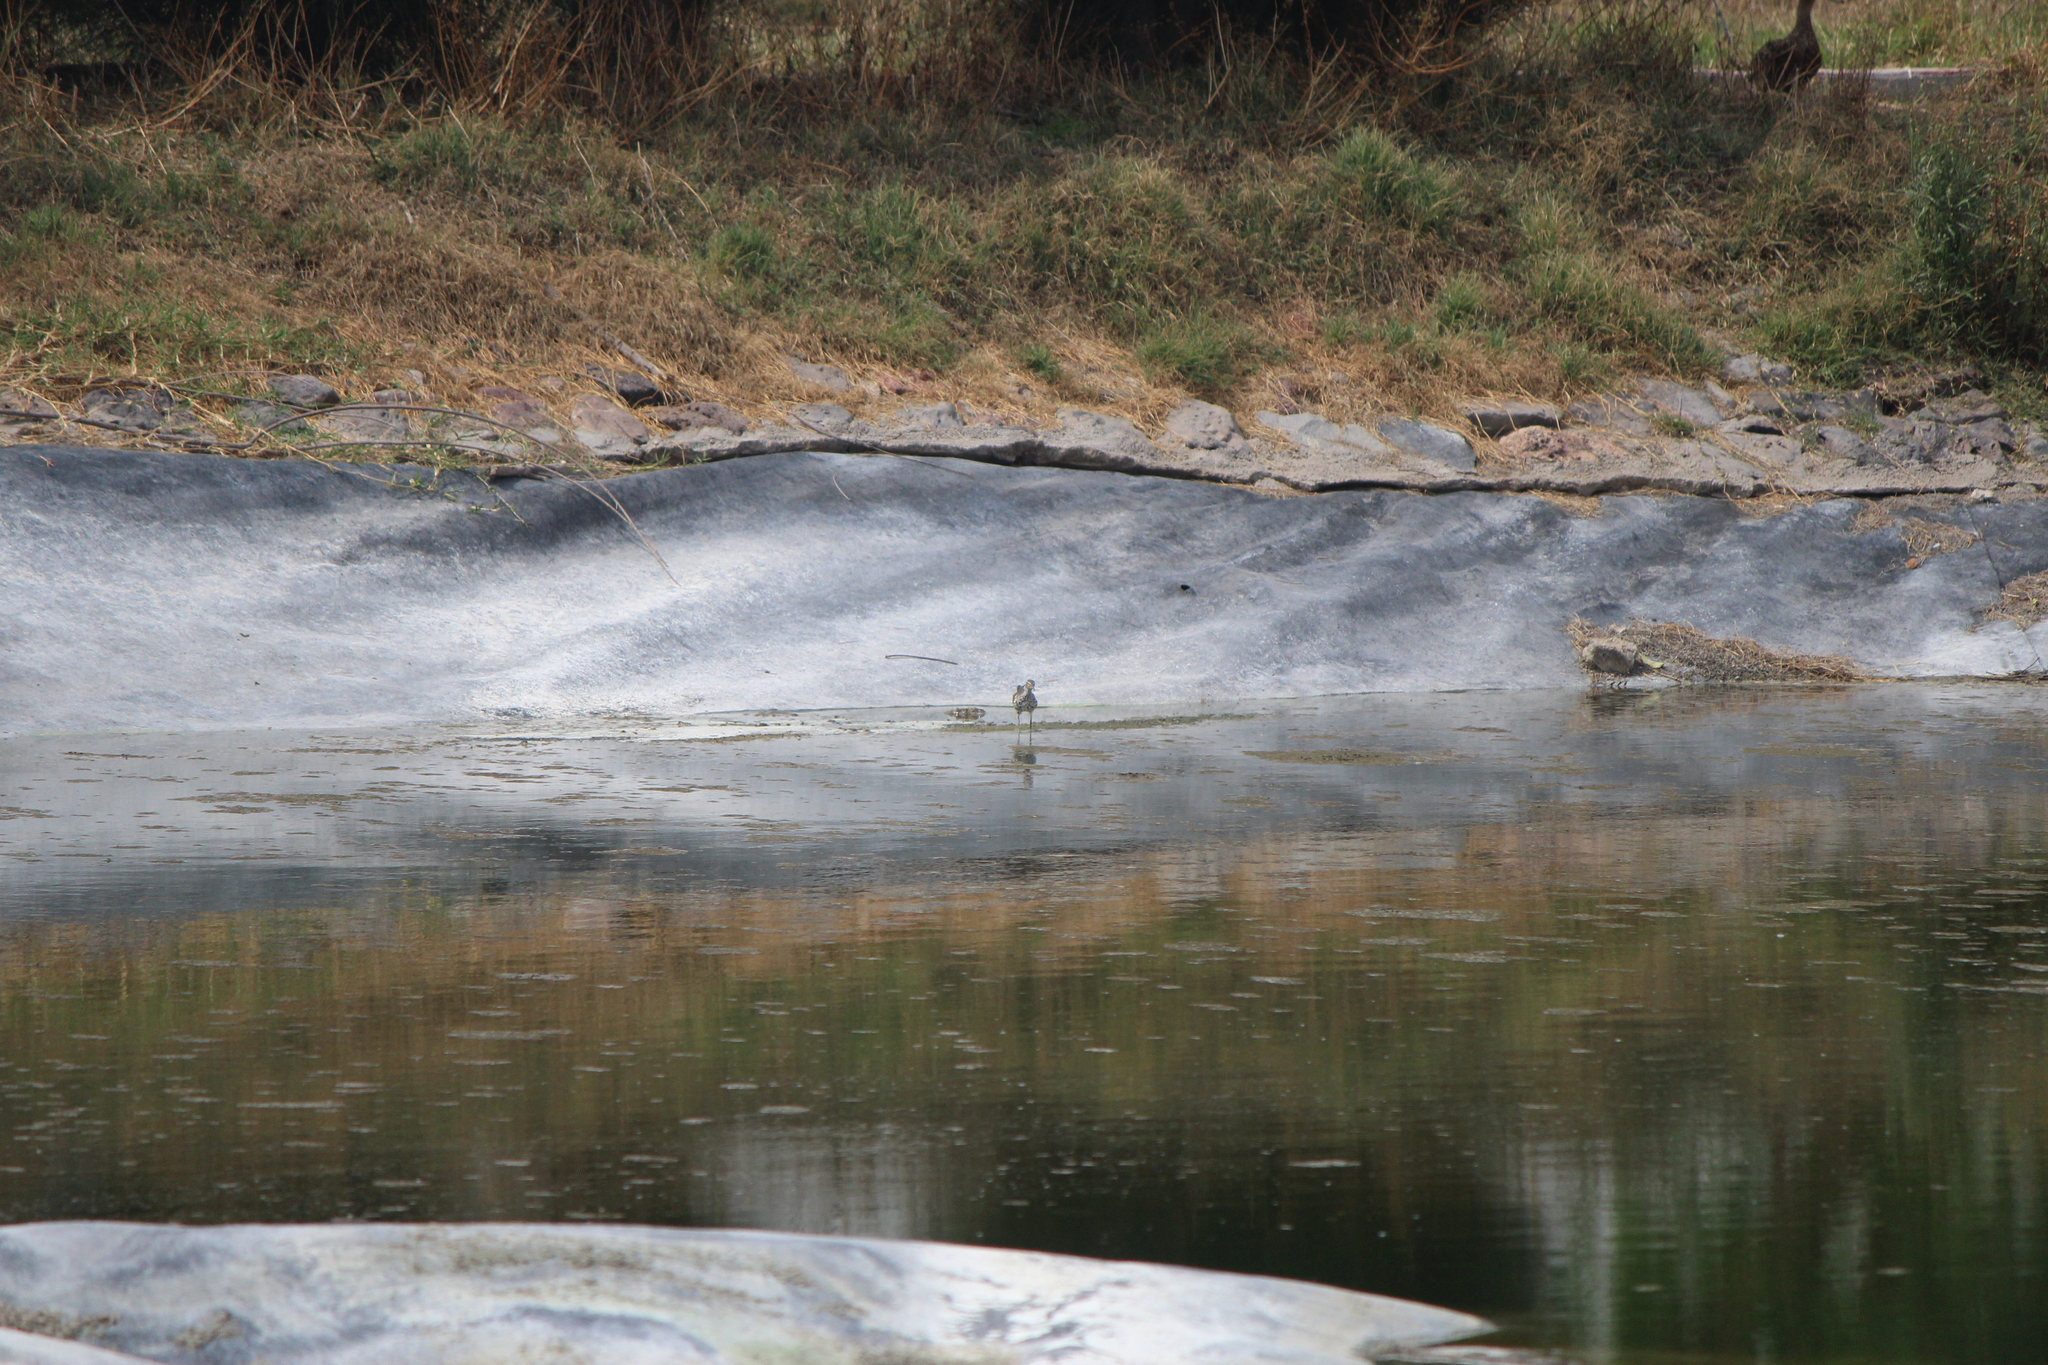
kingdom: Animalia
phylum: Chordata
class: Aves
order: Charadriiformes
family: Scolopacidae
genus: Actitis
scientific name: Actitis macularius
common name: Spotted sandpiper
